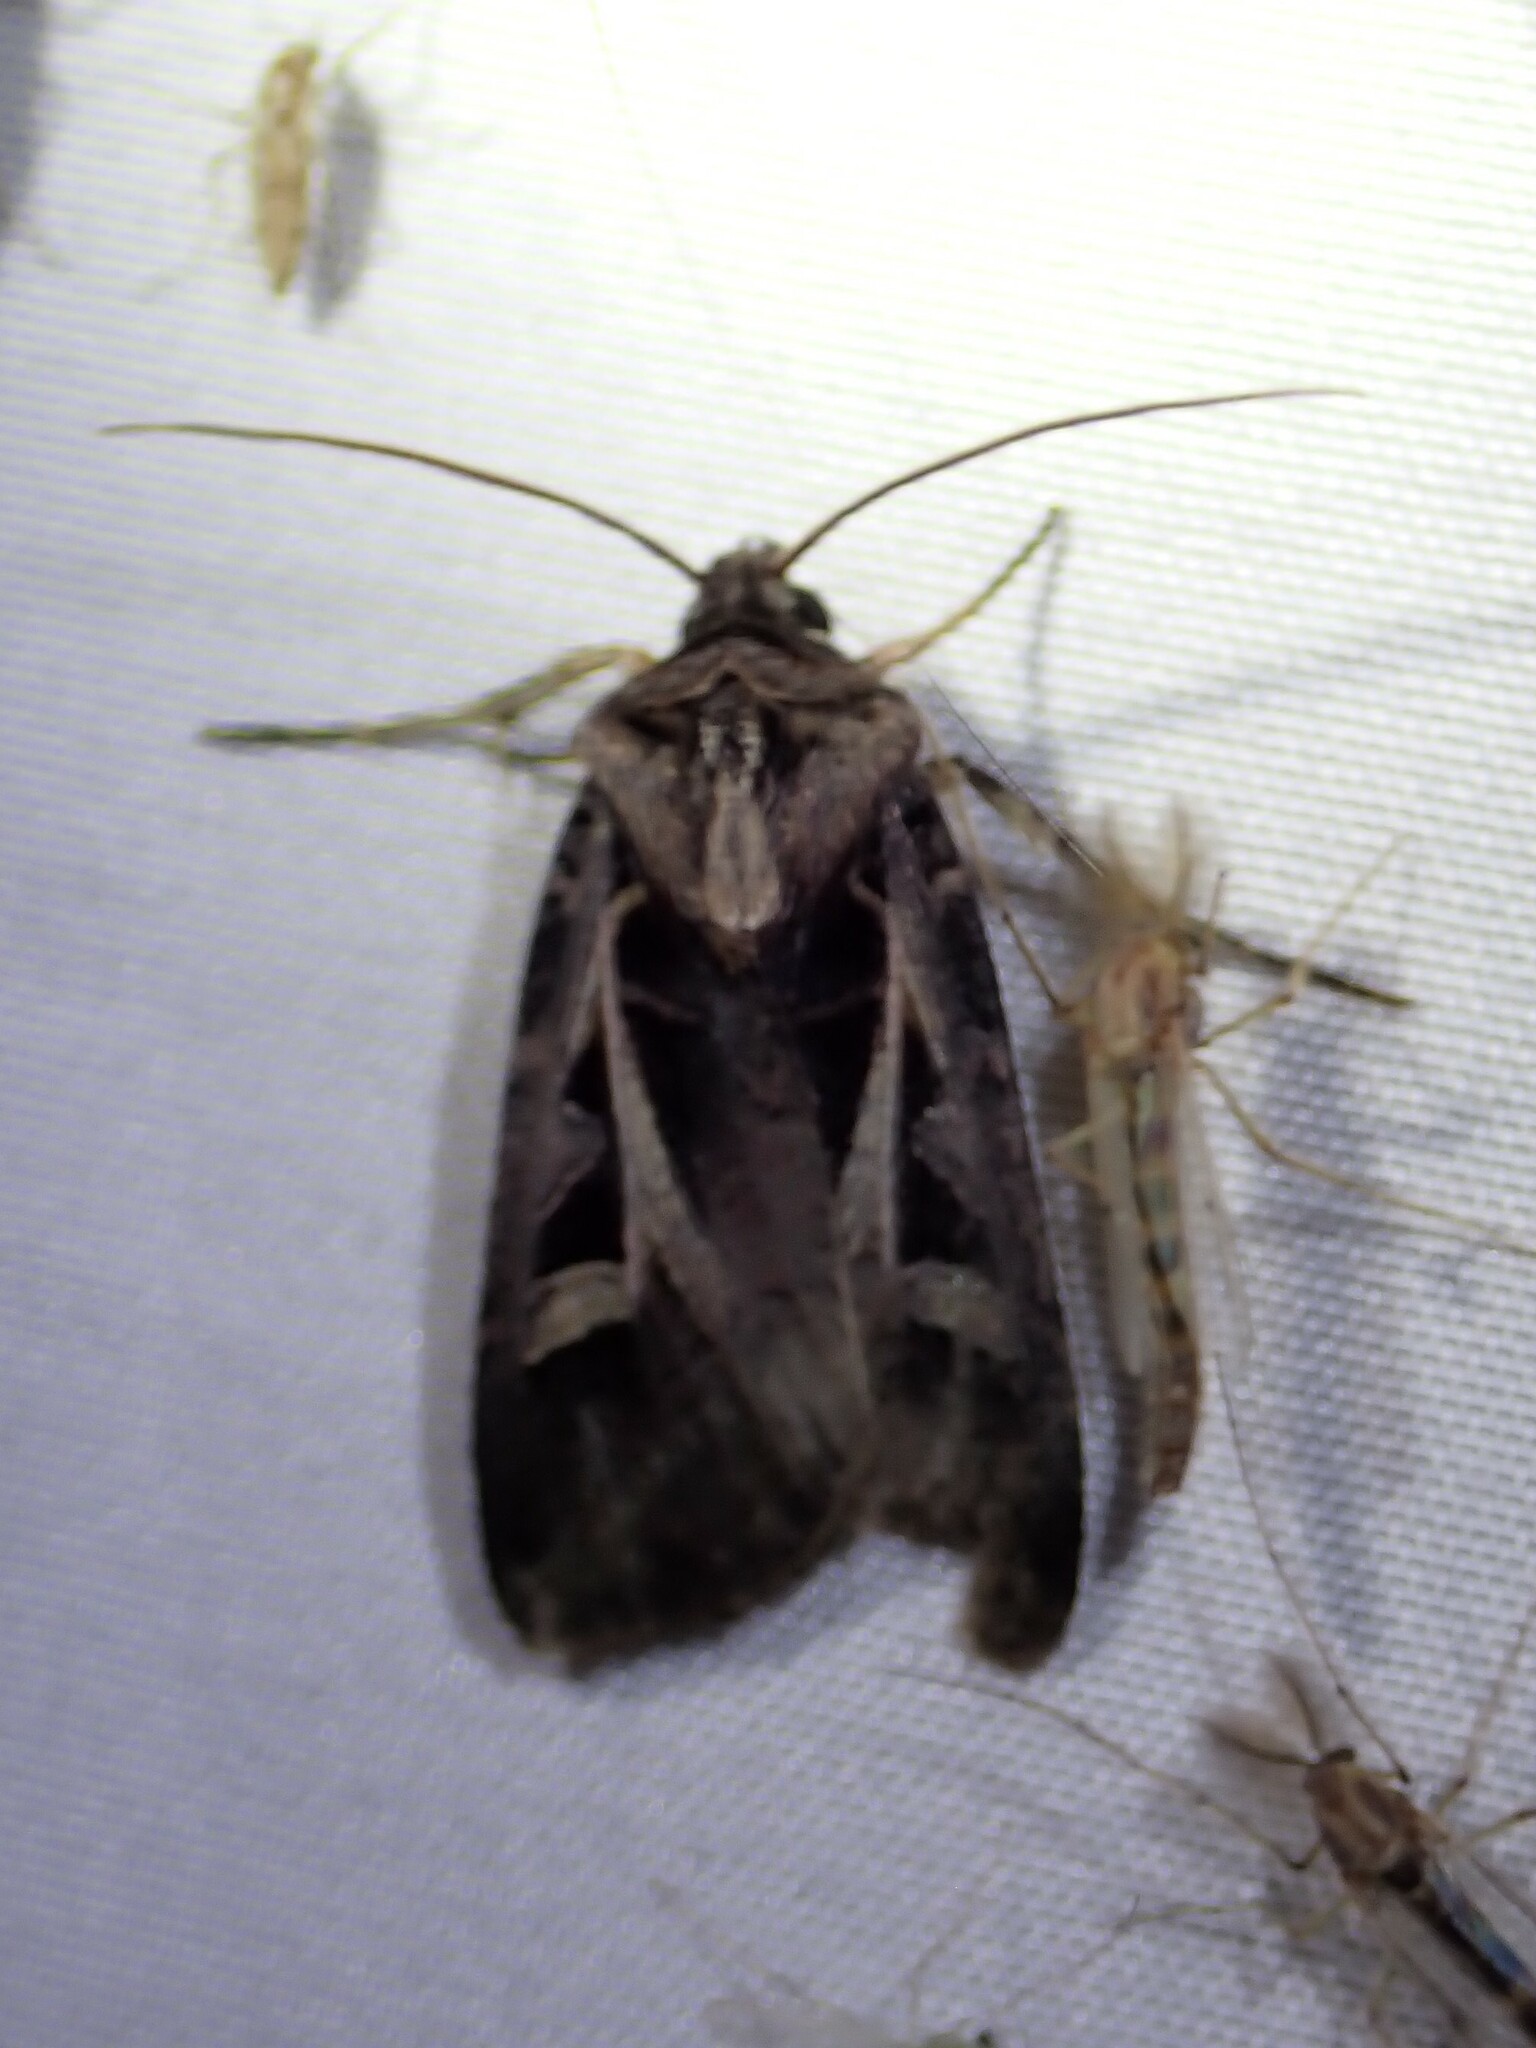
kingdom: Animalia
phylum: Arthropoda
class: Insecta
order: Lepidoptera
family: Noctuidae
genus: Feltia
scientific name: Feltia herilis
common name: Master's dart
